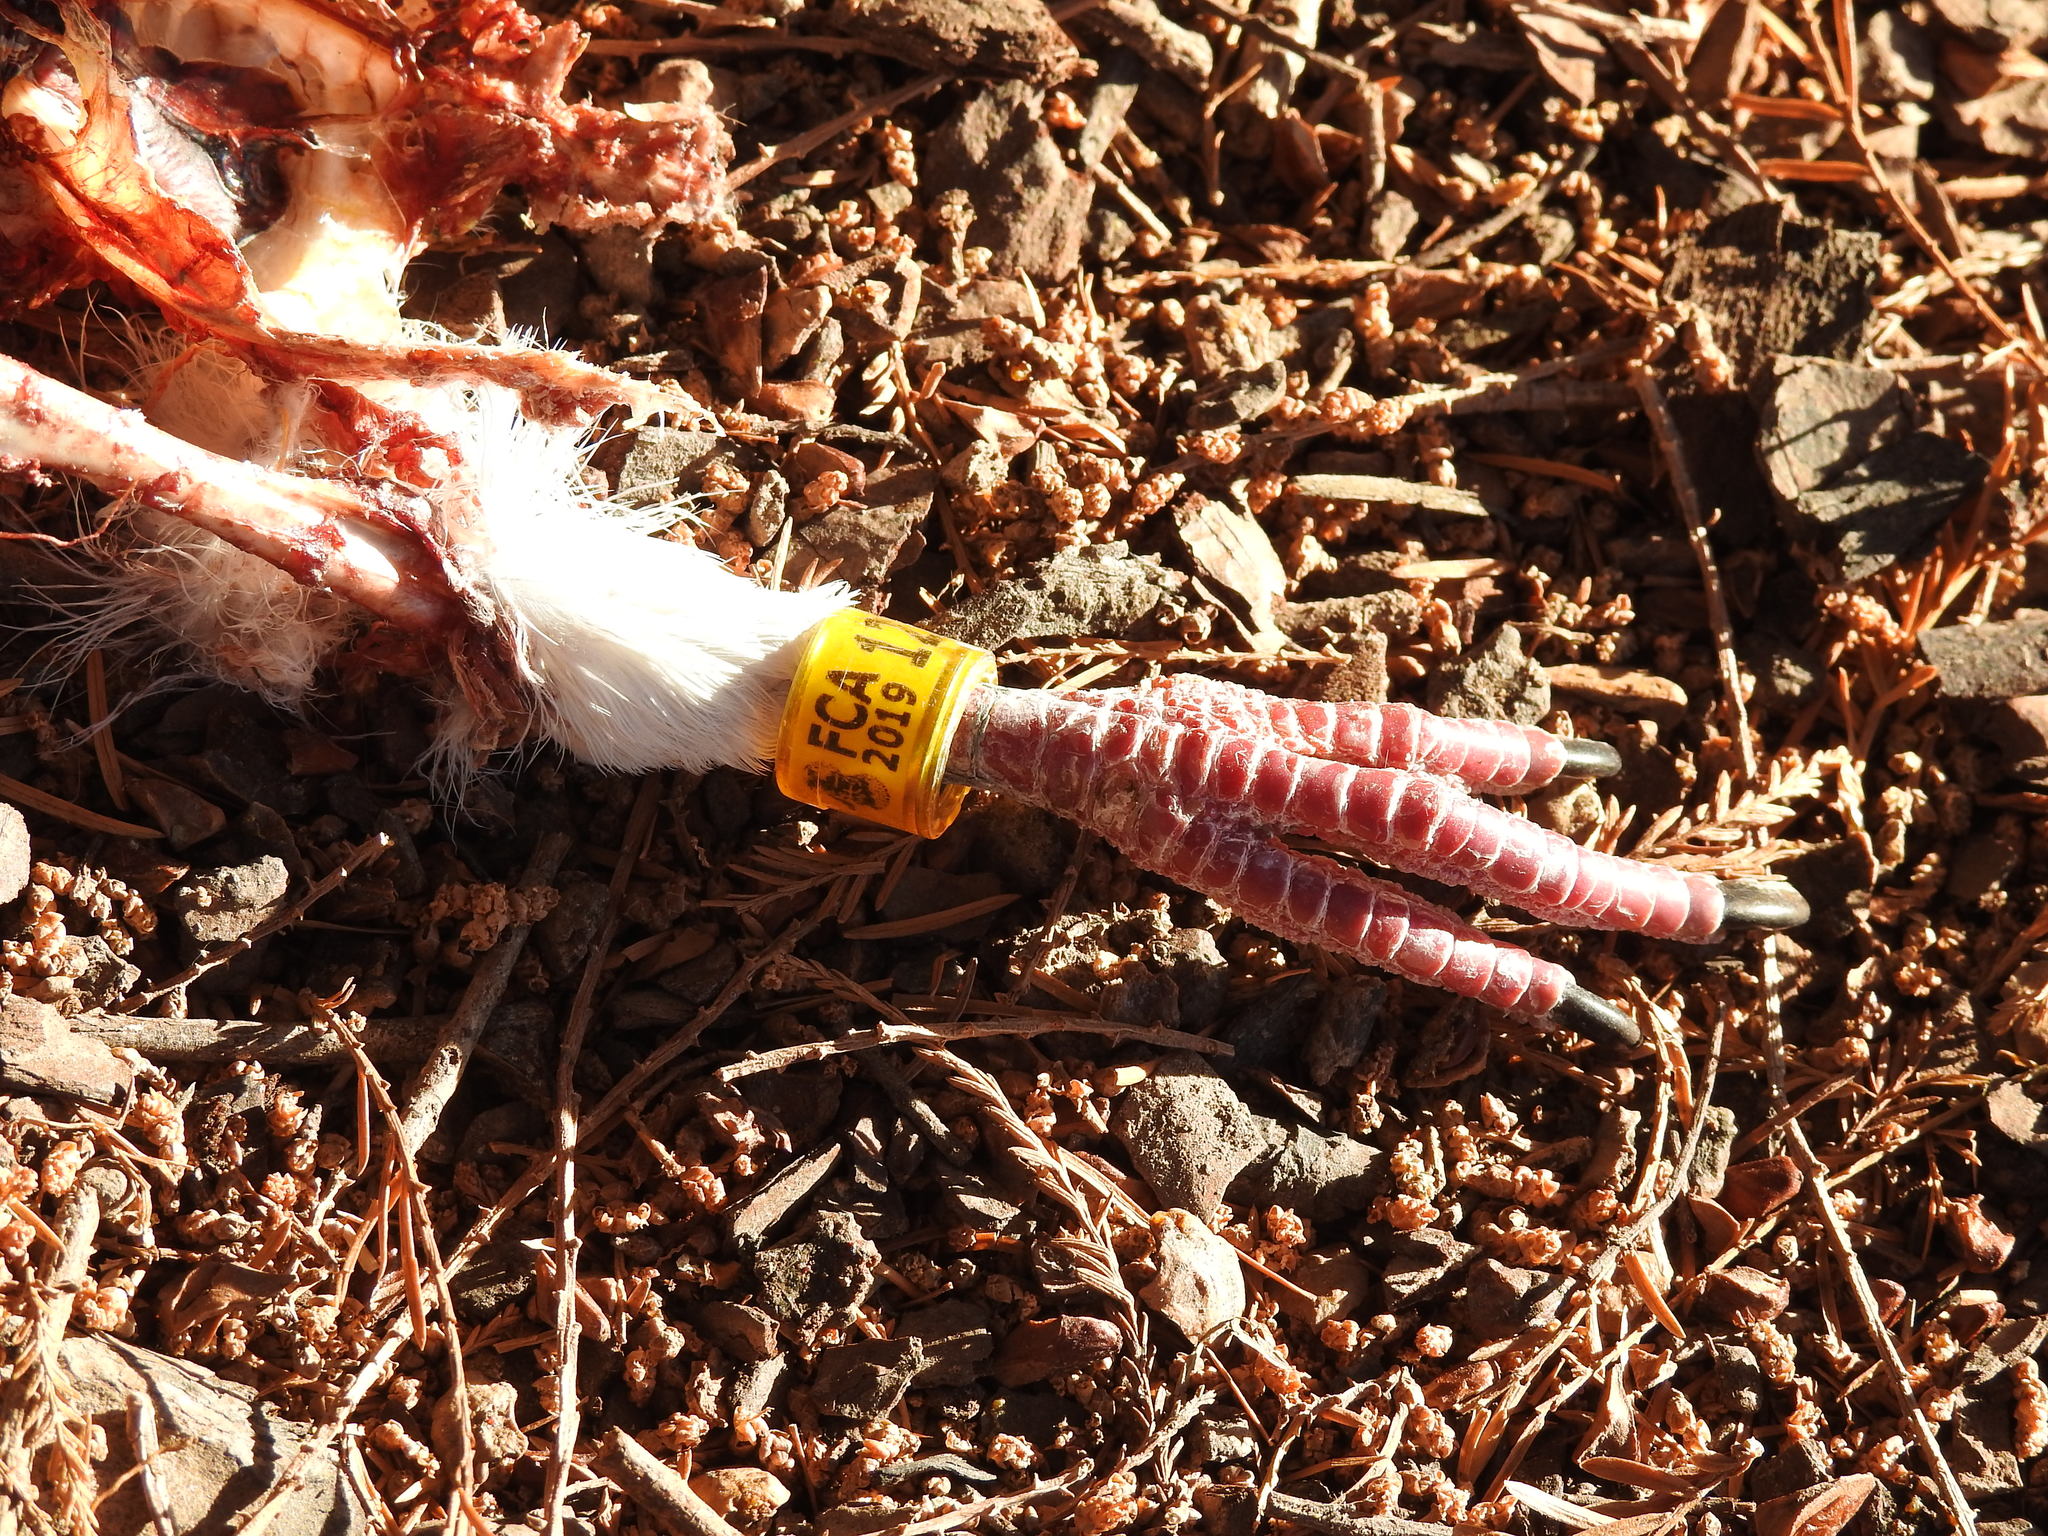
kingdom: Animalia
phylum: Chordata
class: Aves
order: Columbiformes
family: Columbidae
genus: Columba
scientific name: Columba livia
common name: Rock pigeon
